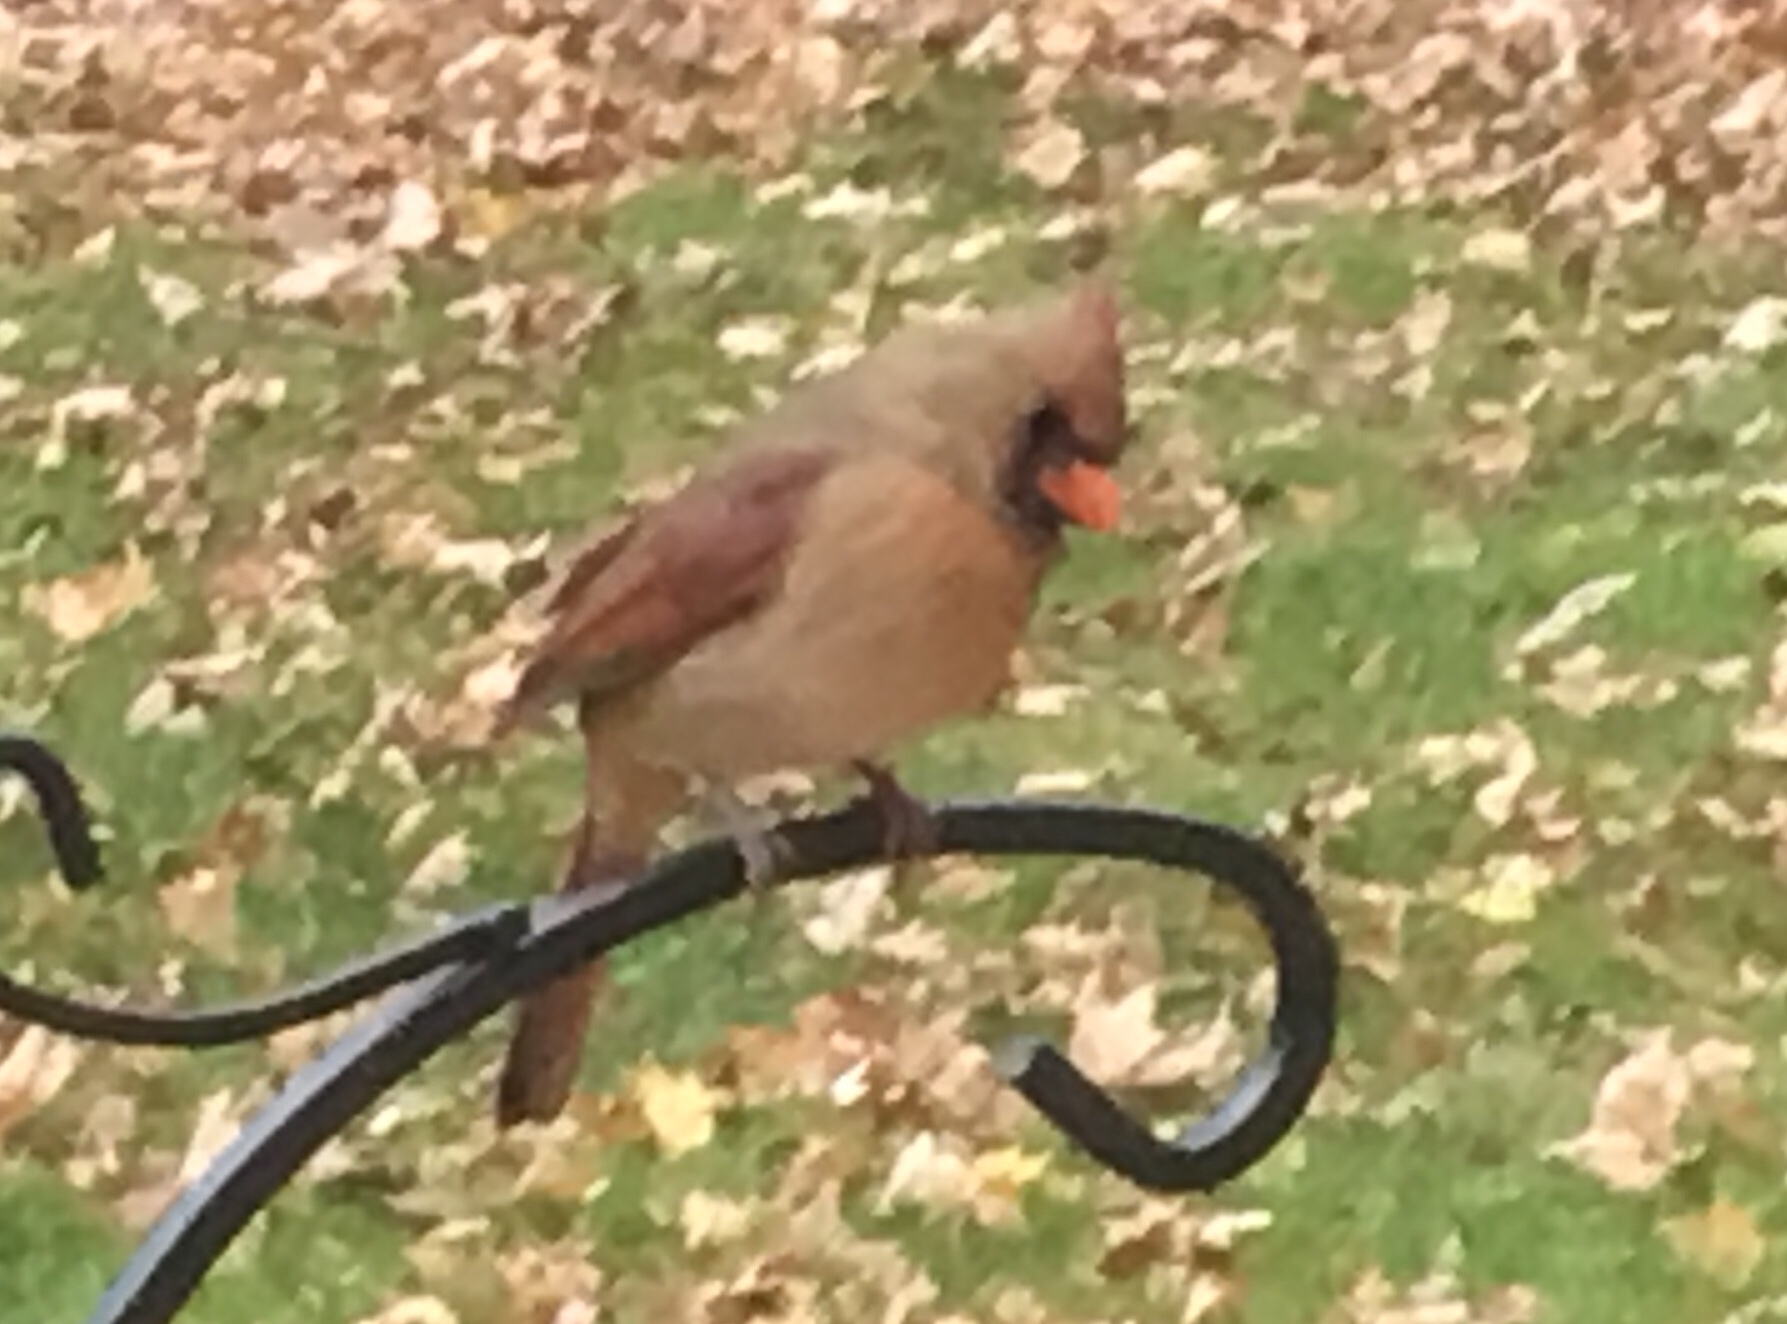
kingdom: Animalia
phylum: Chordata
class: Aves
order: Passeriformes
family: Cardinalidae
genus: Cardinalis
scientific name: Cardinalis cardinalis
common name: Northern cardinal
